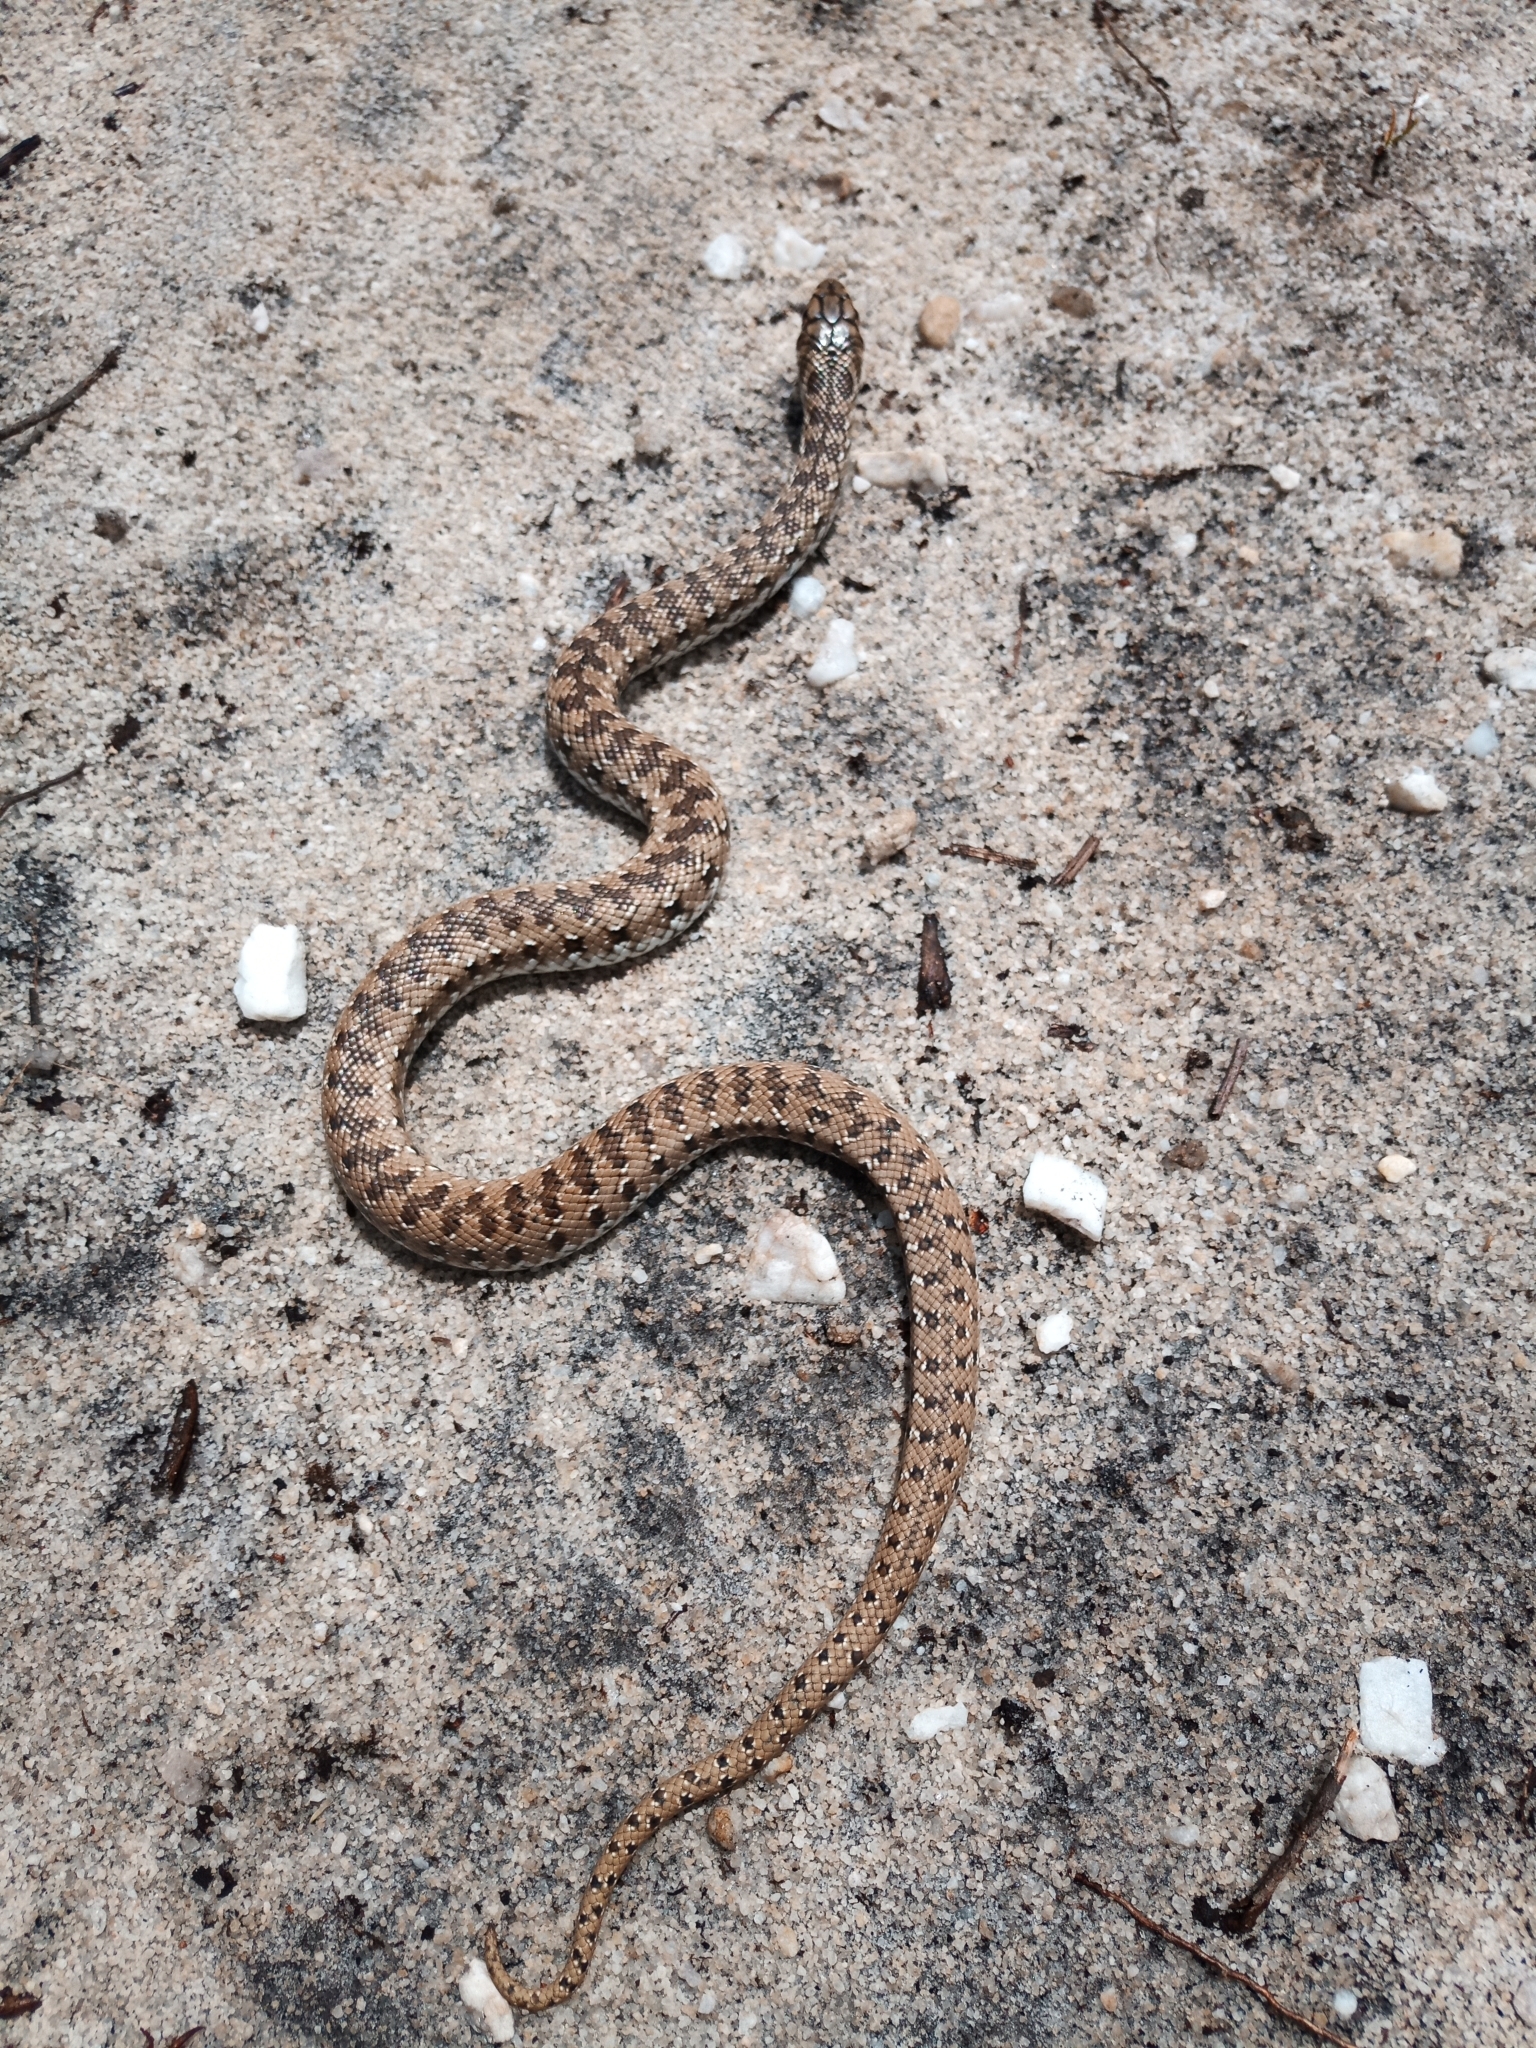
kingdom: Animalia
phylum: Chordata
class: Squamata
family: Pseudaspididae
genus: Pseudaspis
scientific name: Pseudaspis cana
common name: Mole snake
